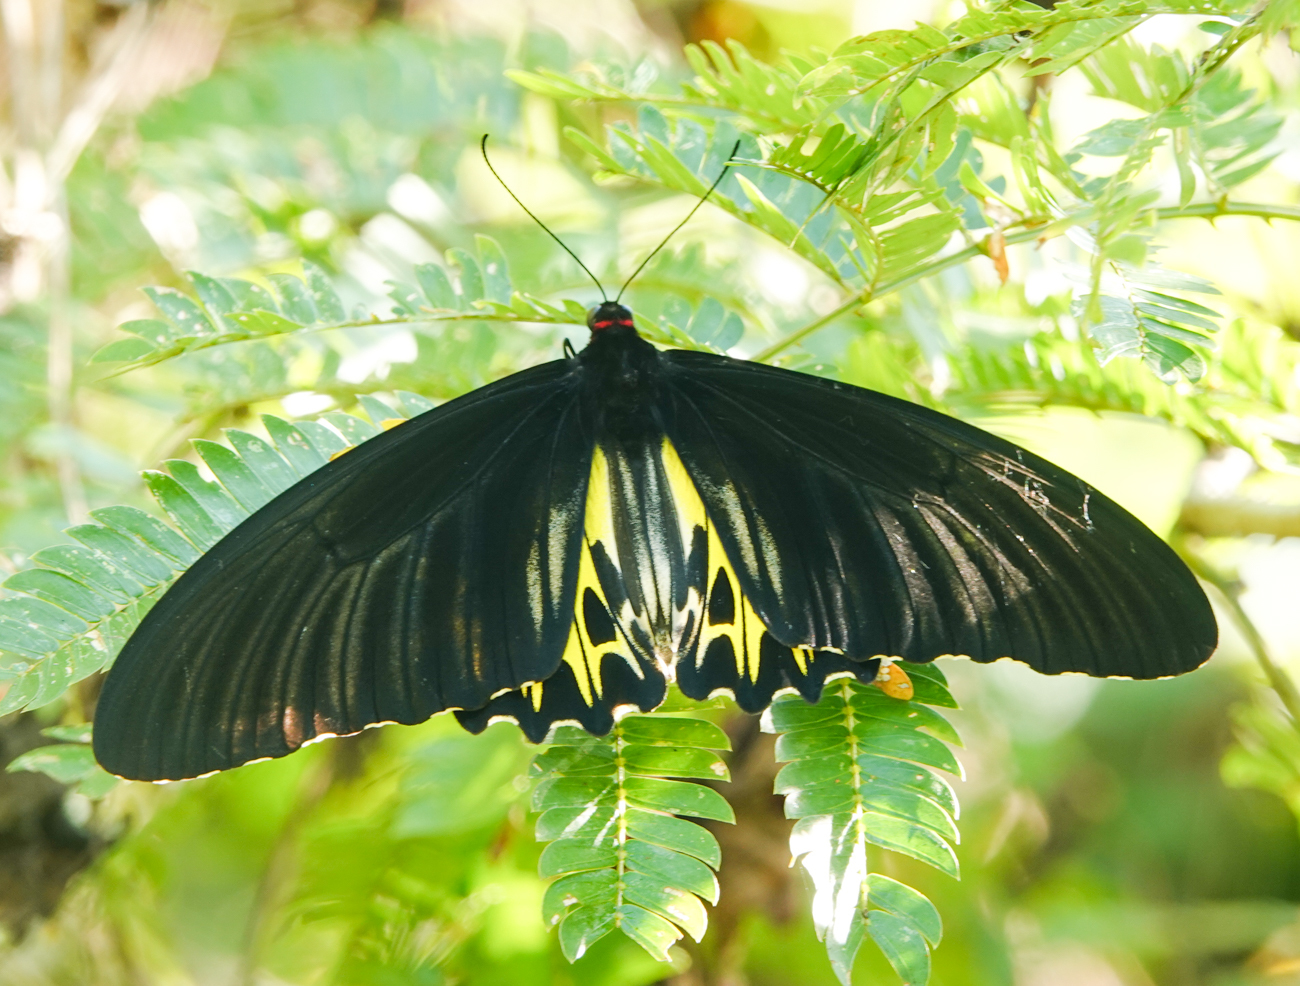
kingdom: Animalia
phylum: Arthropoda
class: Insecta
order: Lepidoptera
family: Papilionidae
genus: Troides
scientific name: Troides helena
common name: Common birdwing
